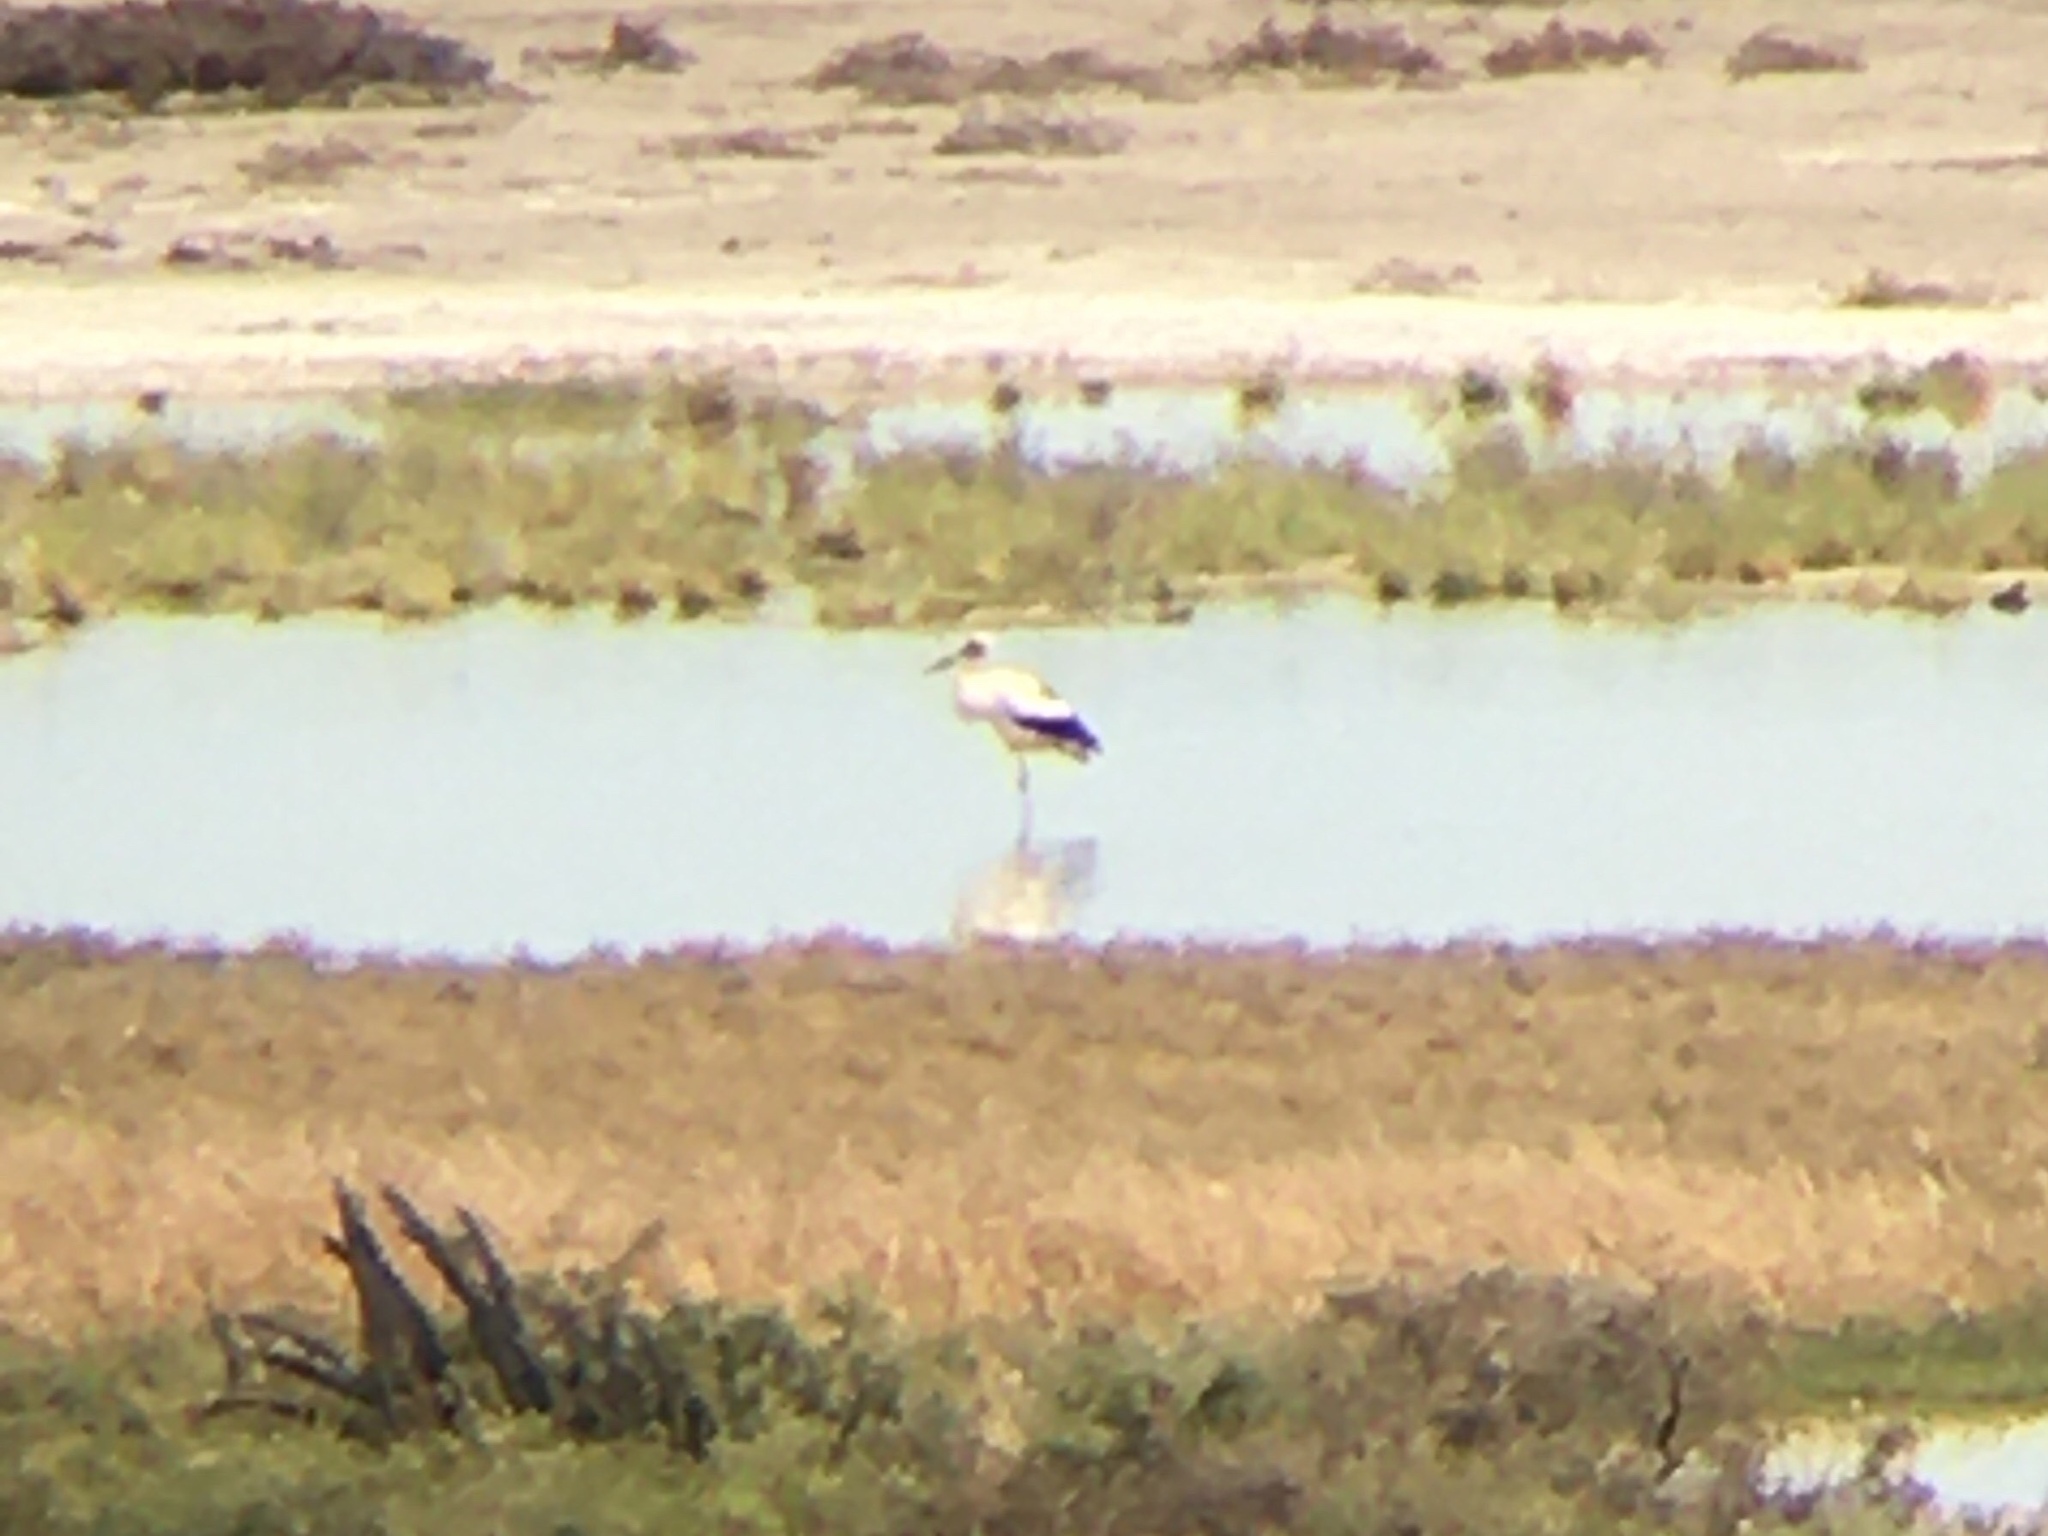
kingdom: Animalia
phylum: Chordata
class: Aves
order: Ciconiiformes
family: Ciconiidae
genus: Ciconia
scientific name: Ciconia maguari
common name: Maguari stork
